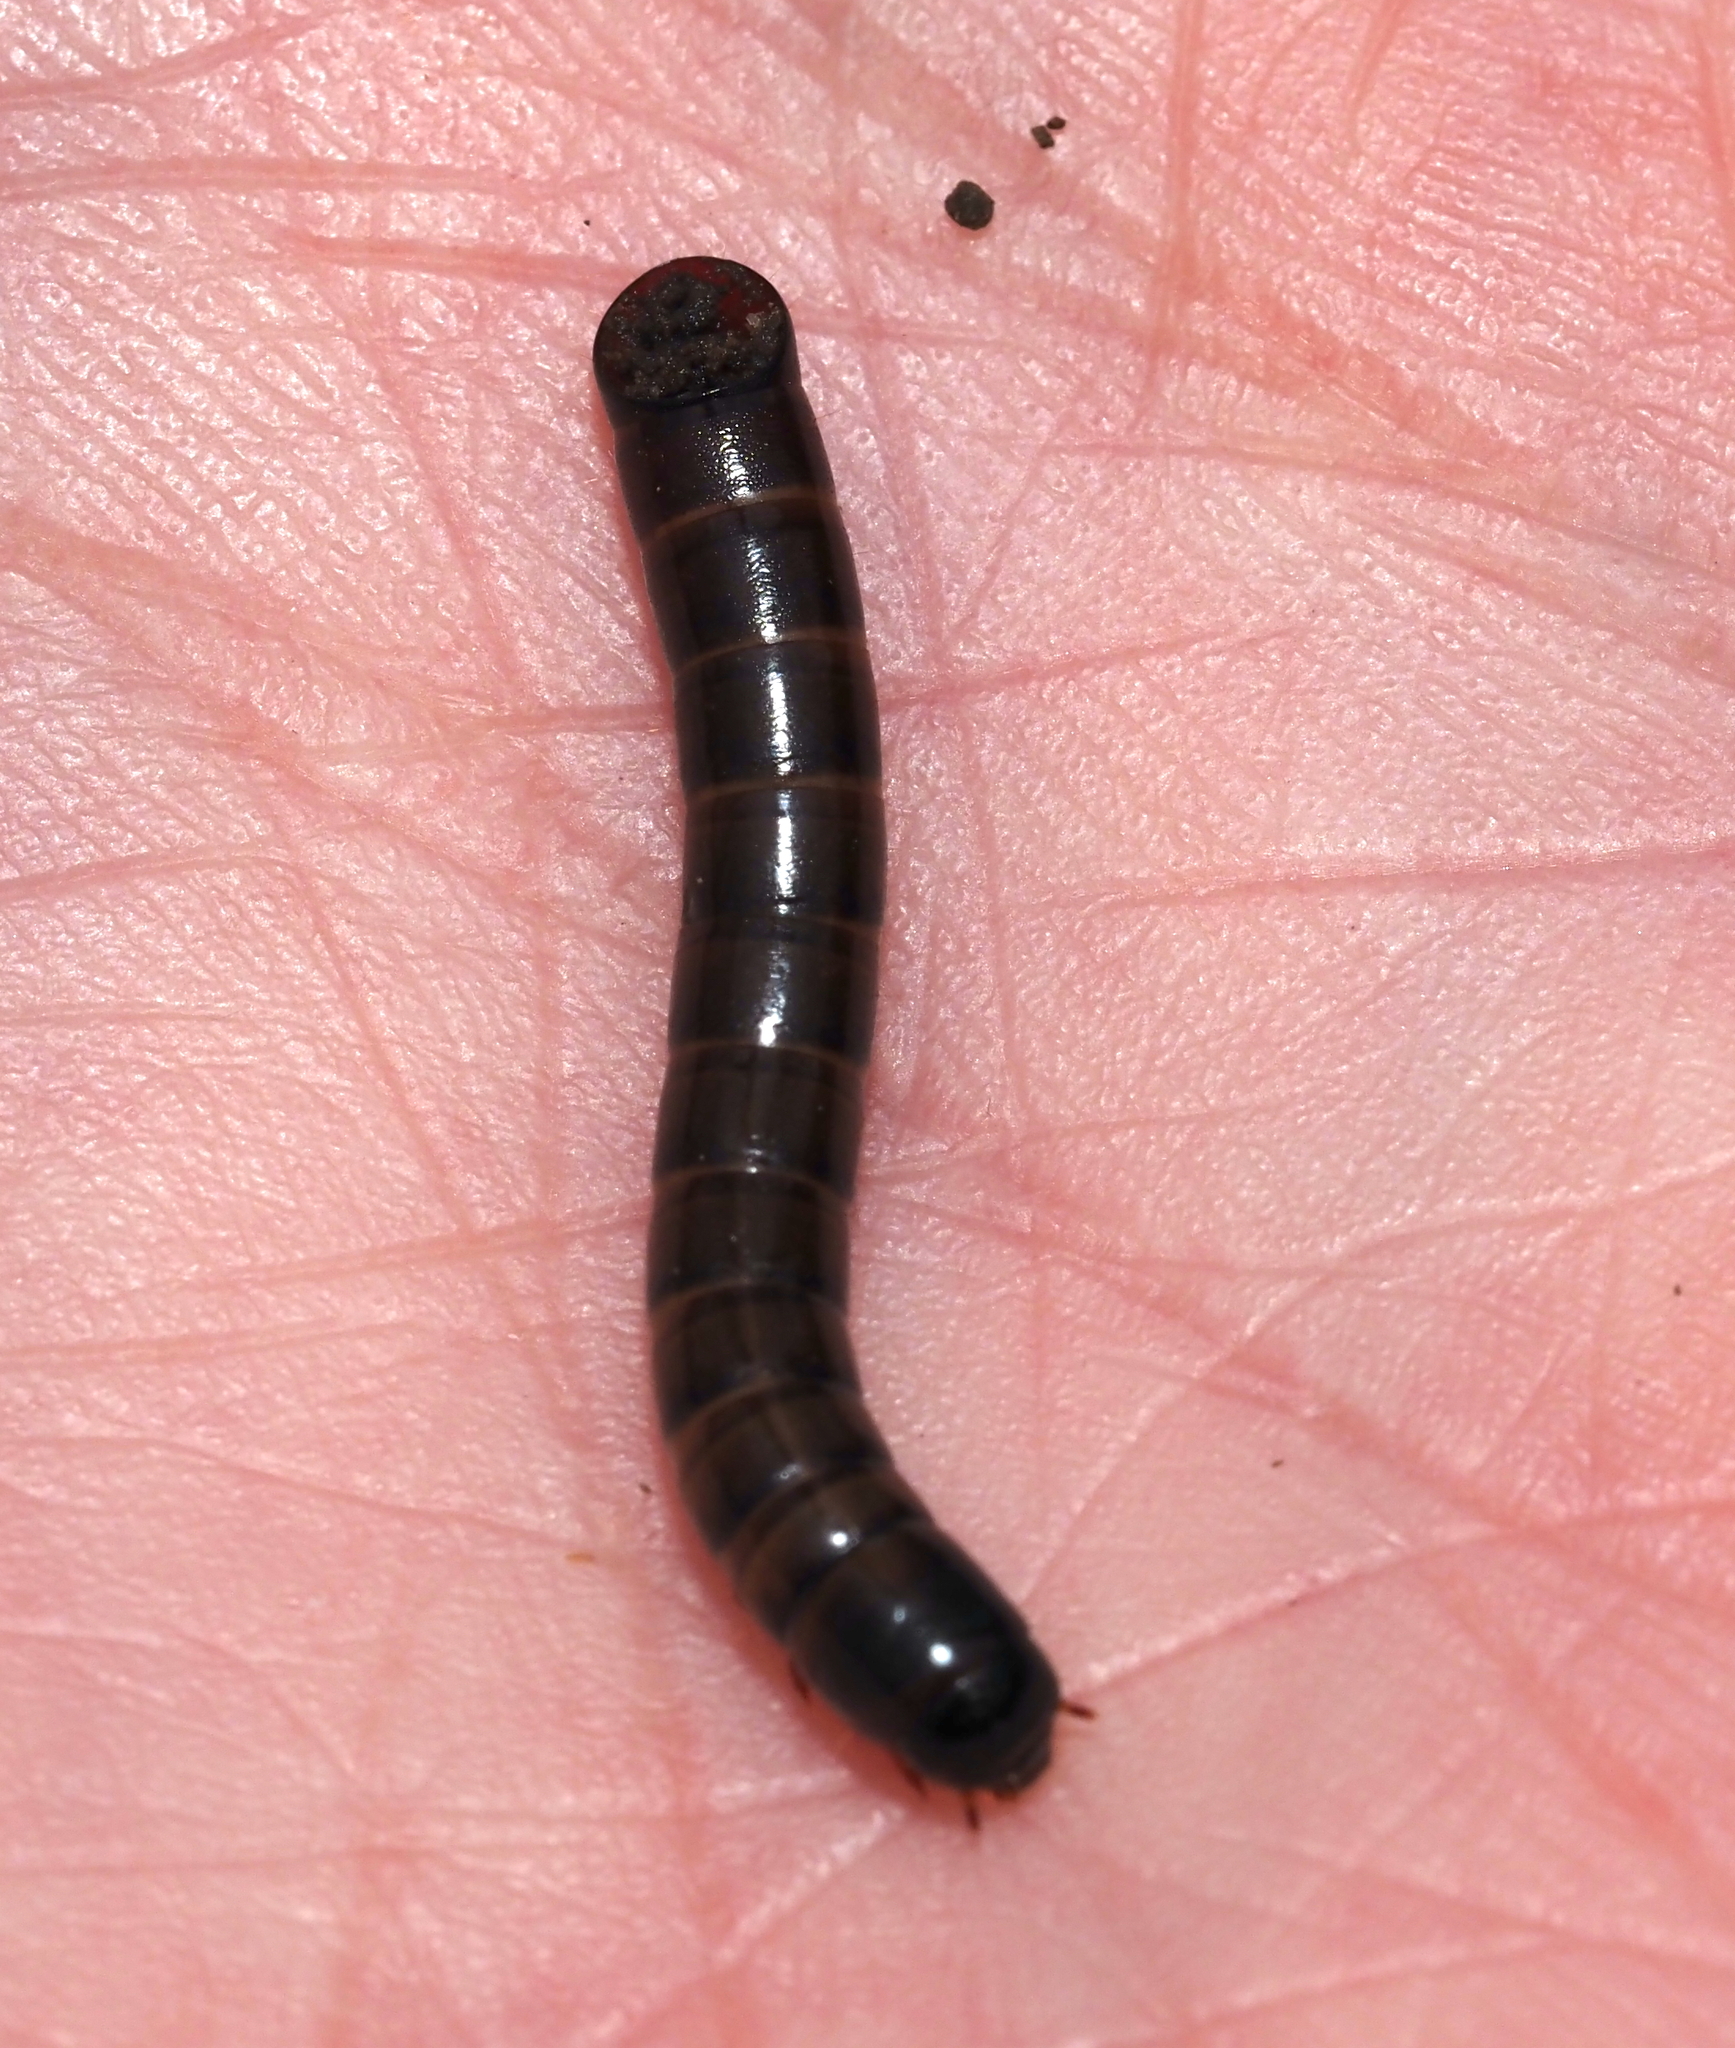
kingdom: Animalia
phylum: Arthropoda
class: Insecta
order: Coleoptera
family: Tenebrionidae
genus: Meracantha
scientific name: Meracantha contracta
